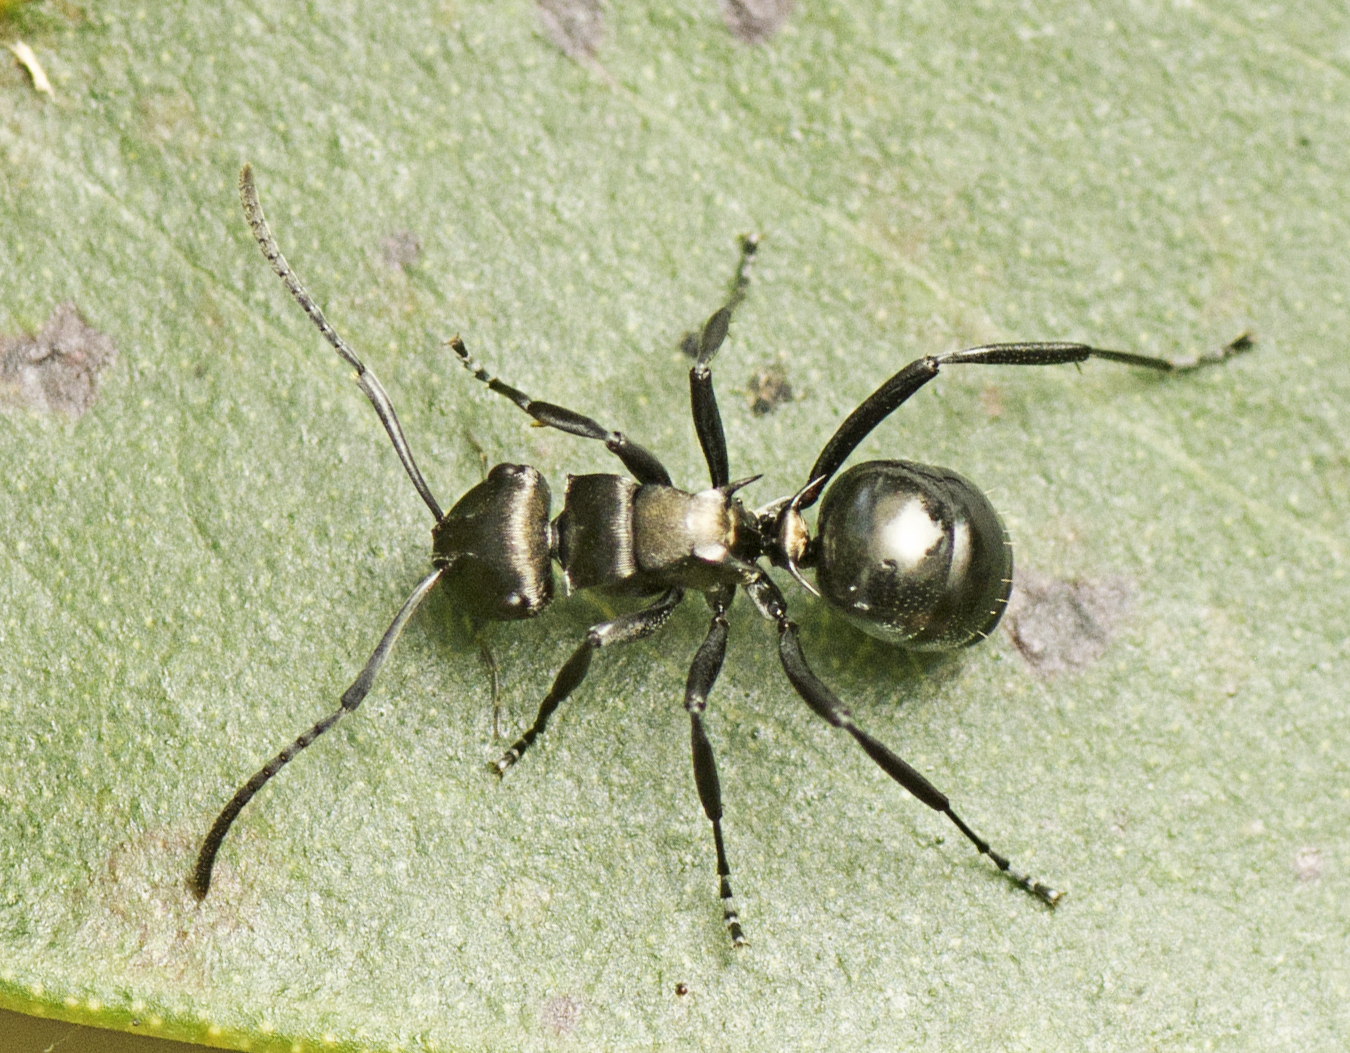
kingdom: Animalia
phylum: Arthropoda
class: Insecta
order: Hymenoptera
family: Formicidae
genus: Polyrhachis
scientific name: Polyrhachis clio
